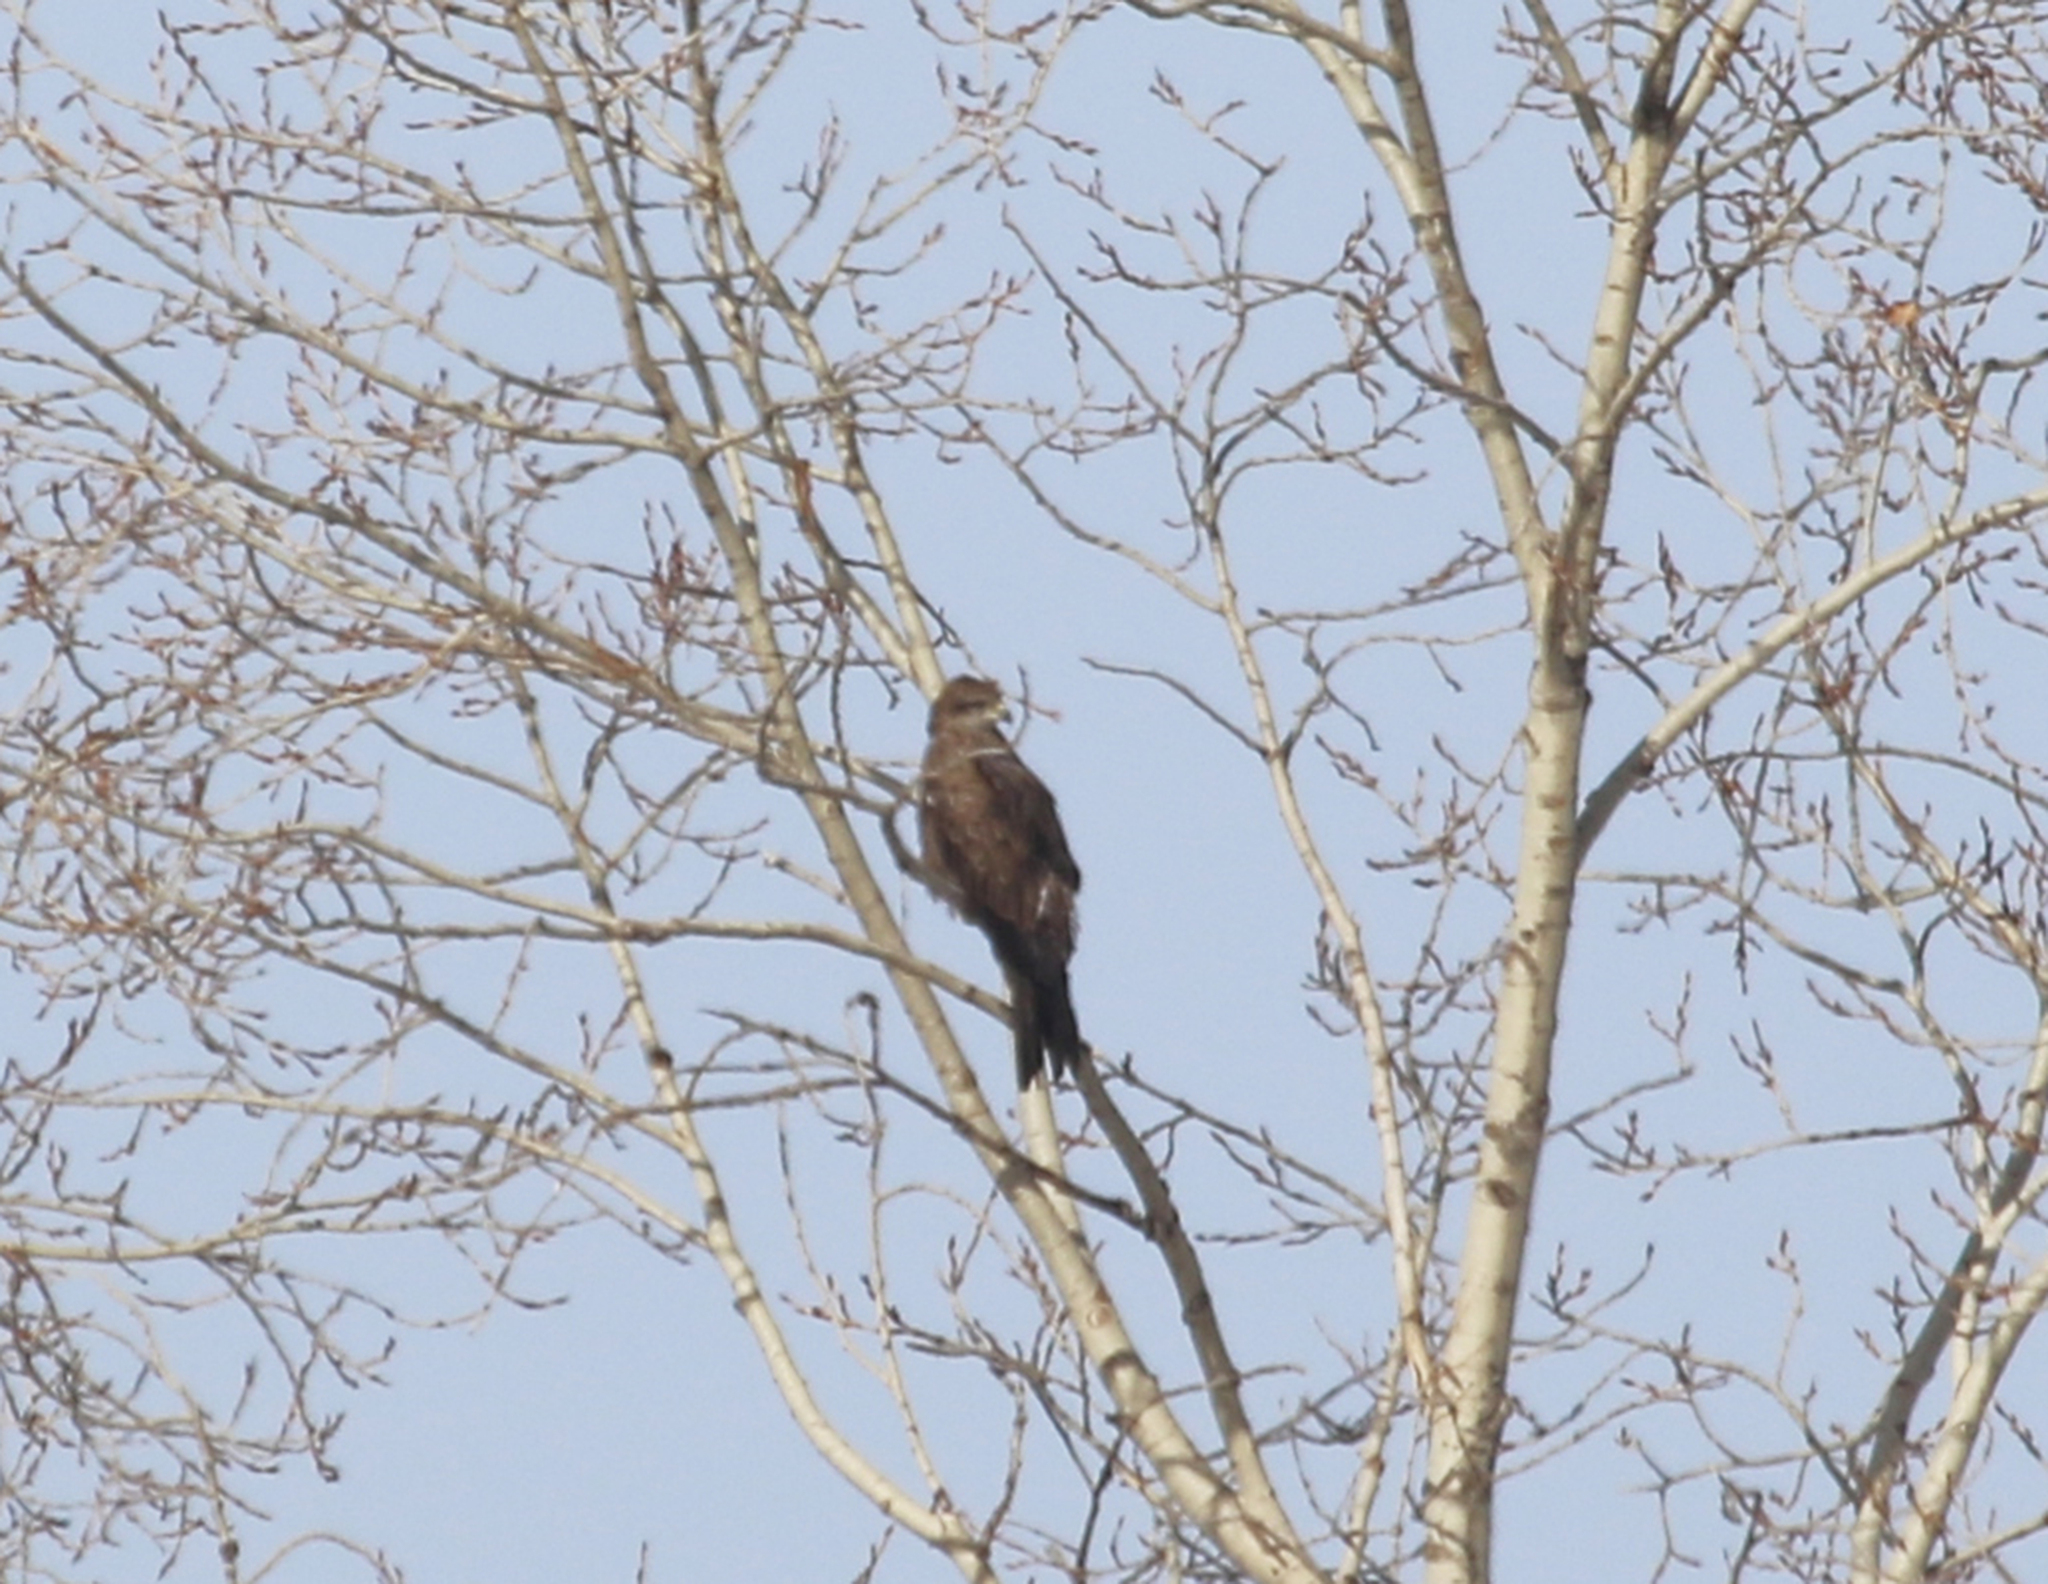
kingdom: Animalia
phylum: Chordata
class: Aves
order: Accipitriformes
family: Accipitridae
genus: Milvus
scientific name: Milvus migrans
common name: Black kite
